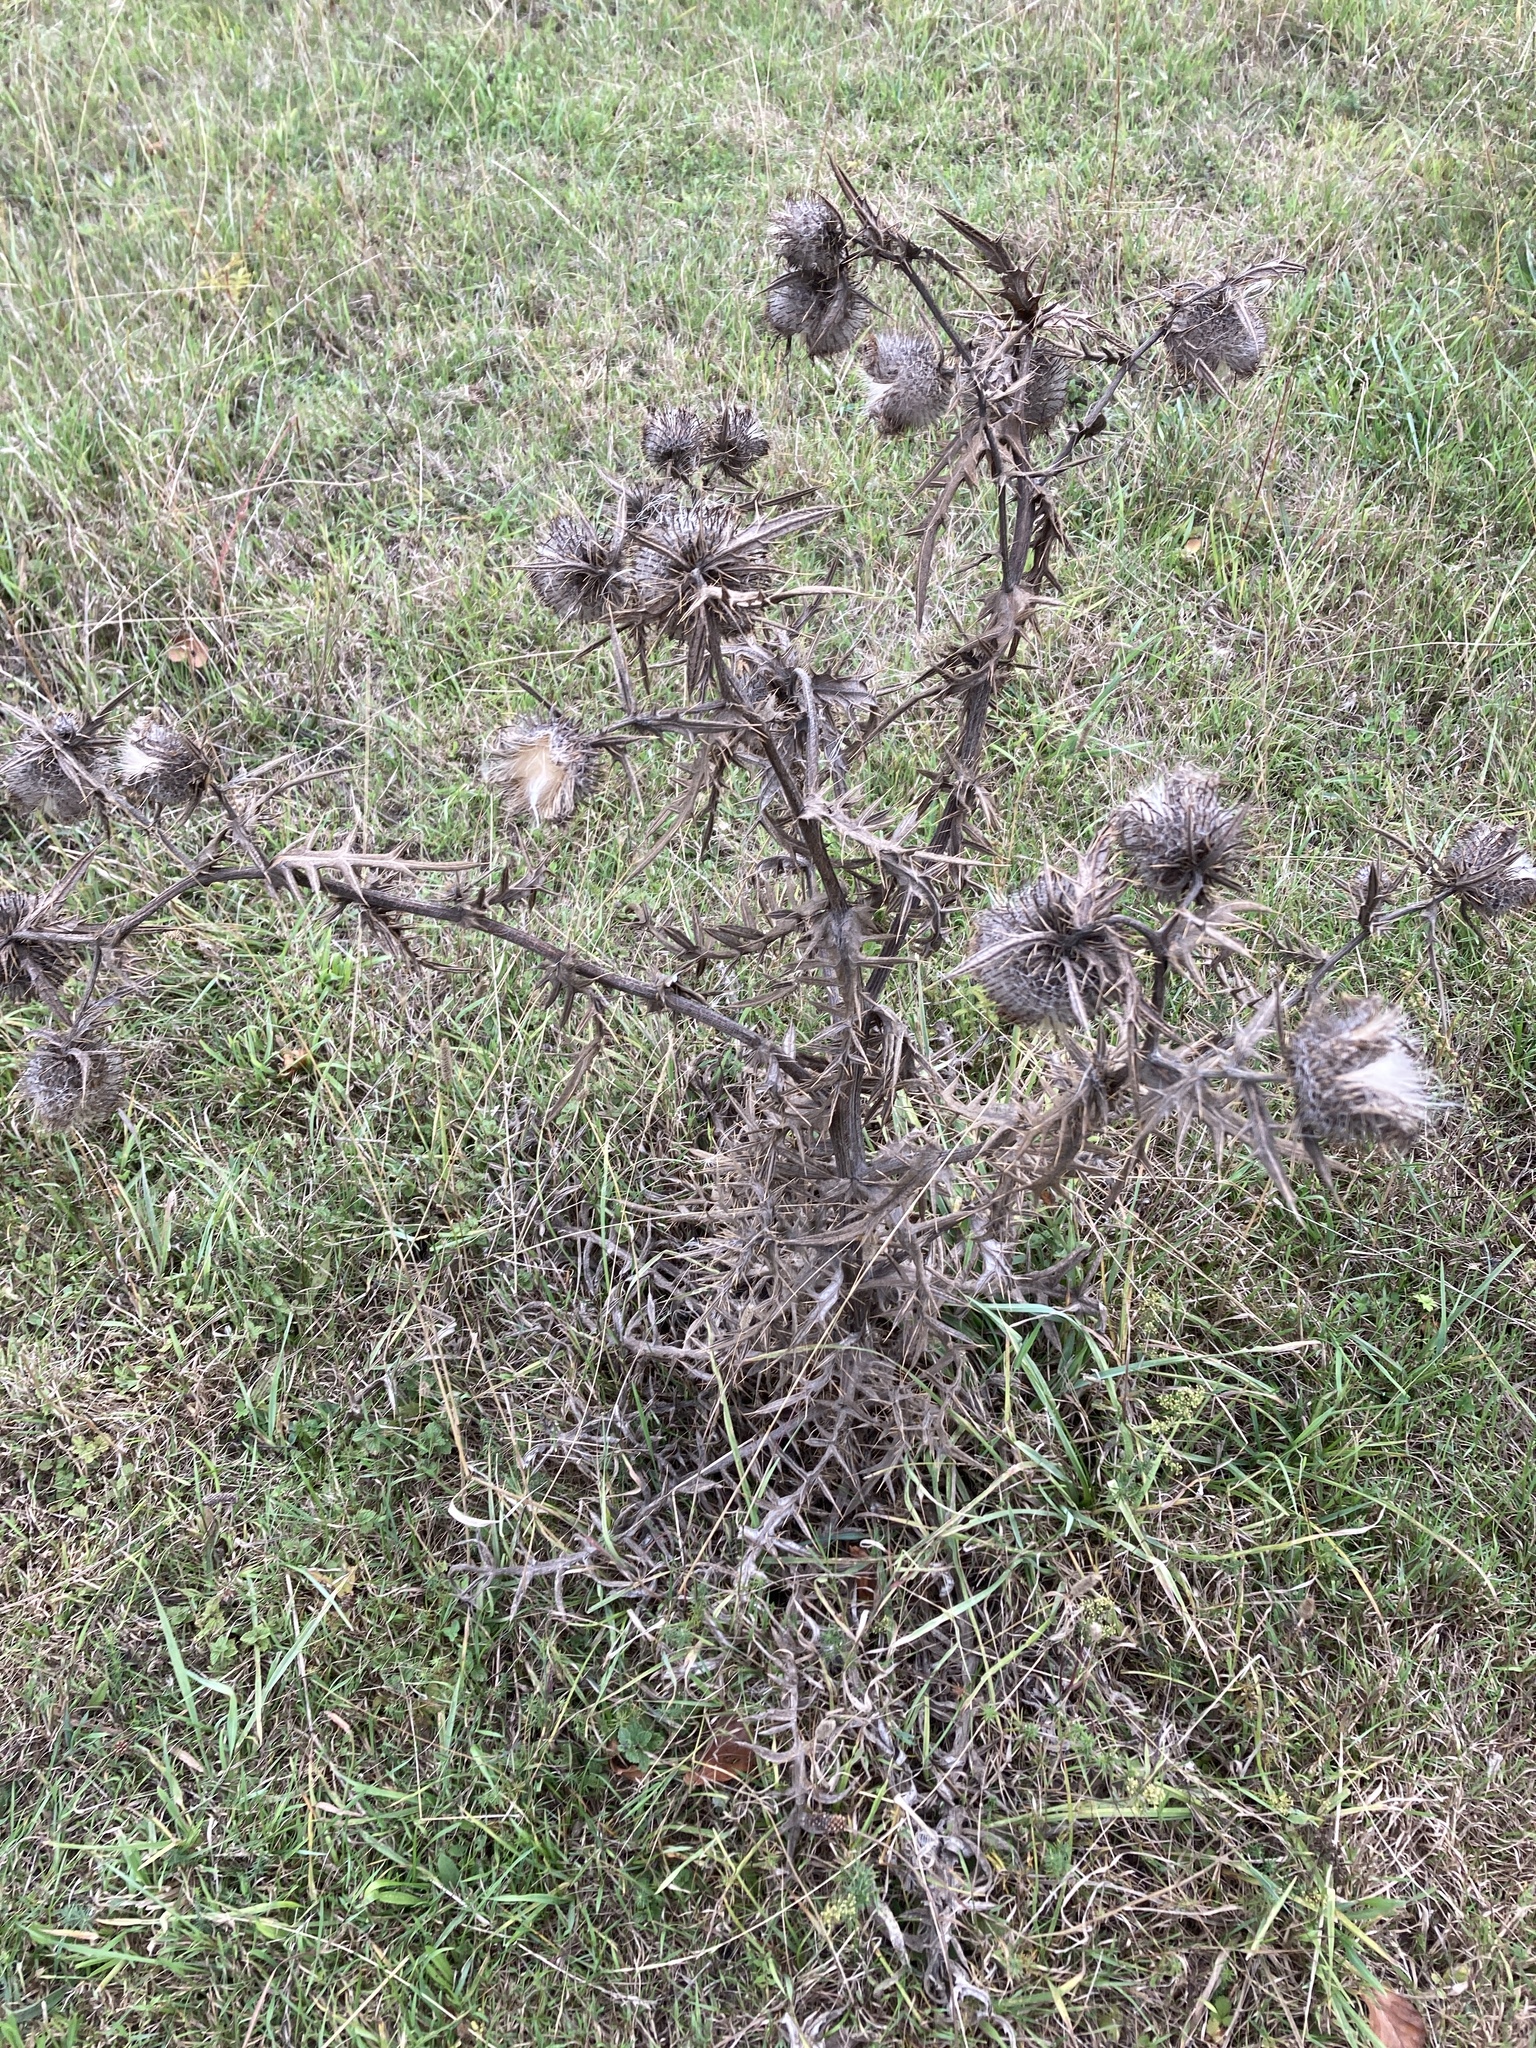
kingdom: Plantae
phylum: Tracheophyta
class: Magnoliopsida
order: Asterales
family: Asteraceae
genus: Lophiolepis
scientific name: Lophiolepis eriophora
